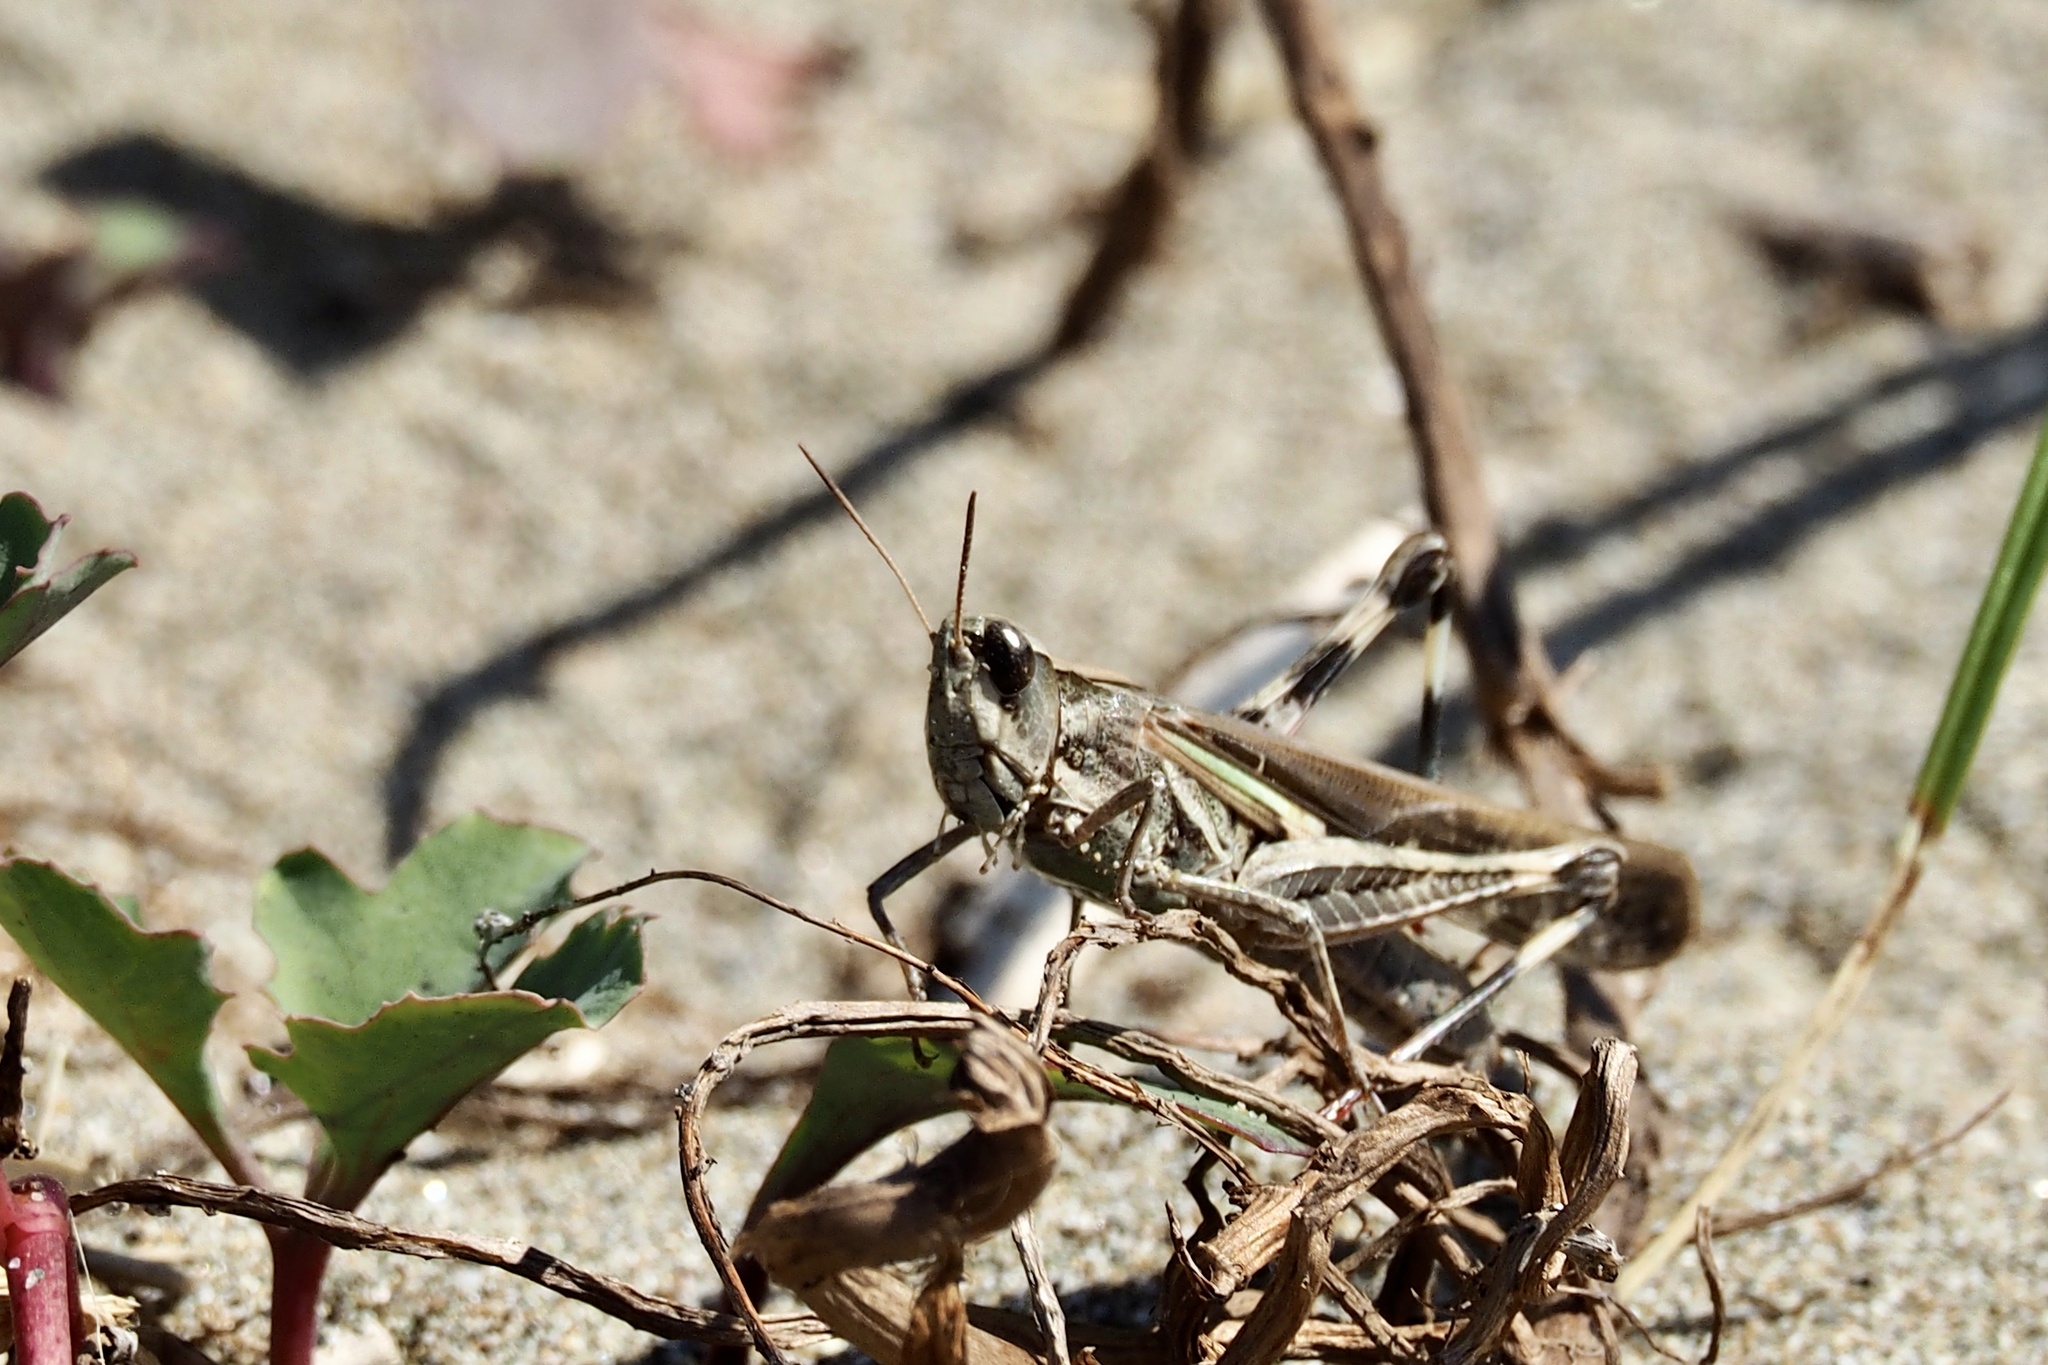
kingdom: Animalia
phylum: Arthropoda
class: Insecta
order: Orthoptera
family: Acrididae
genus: Aiolopus
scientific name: Aiolopus thalassinus
